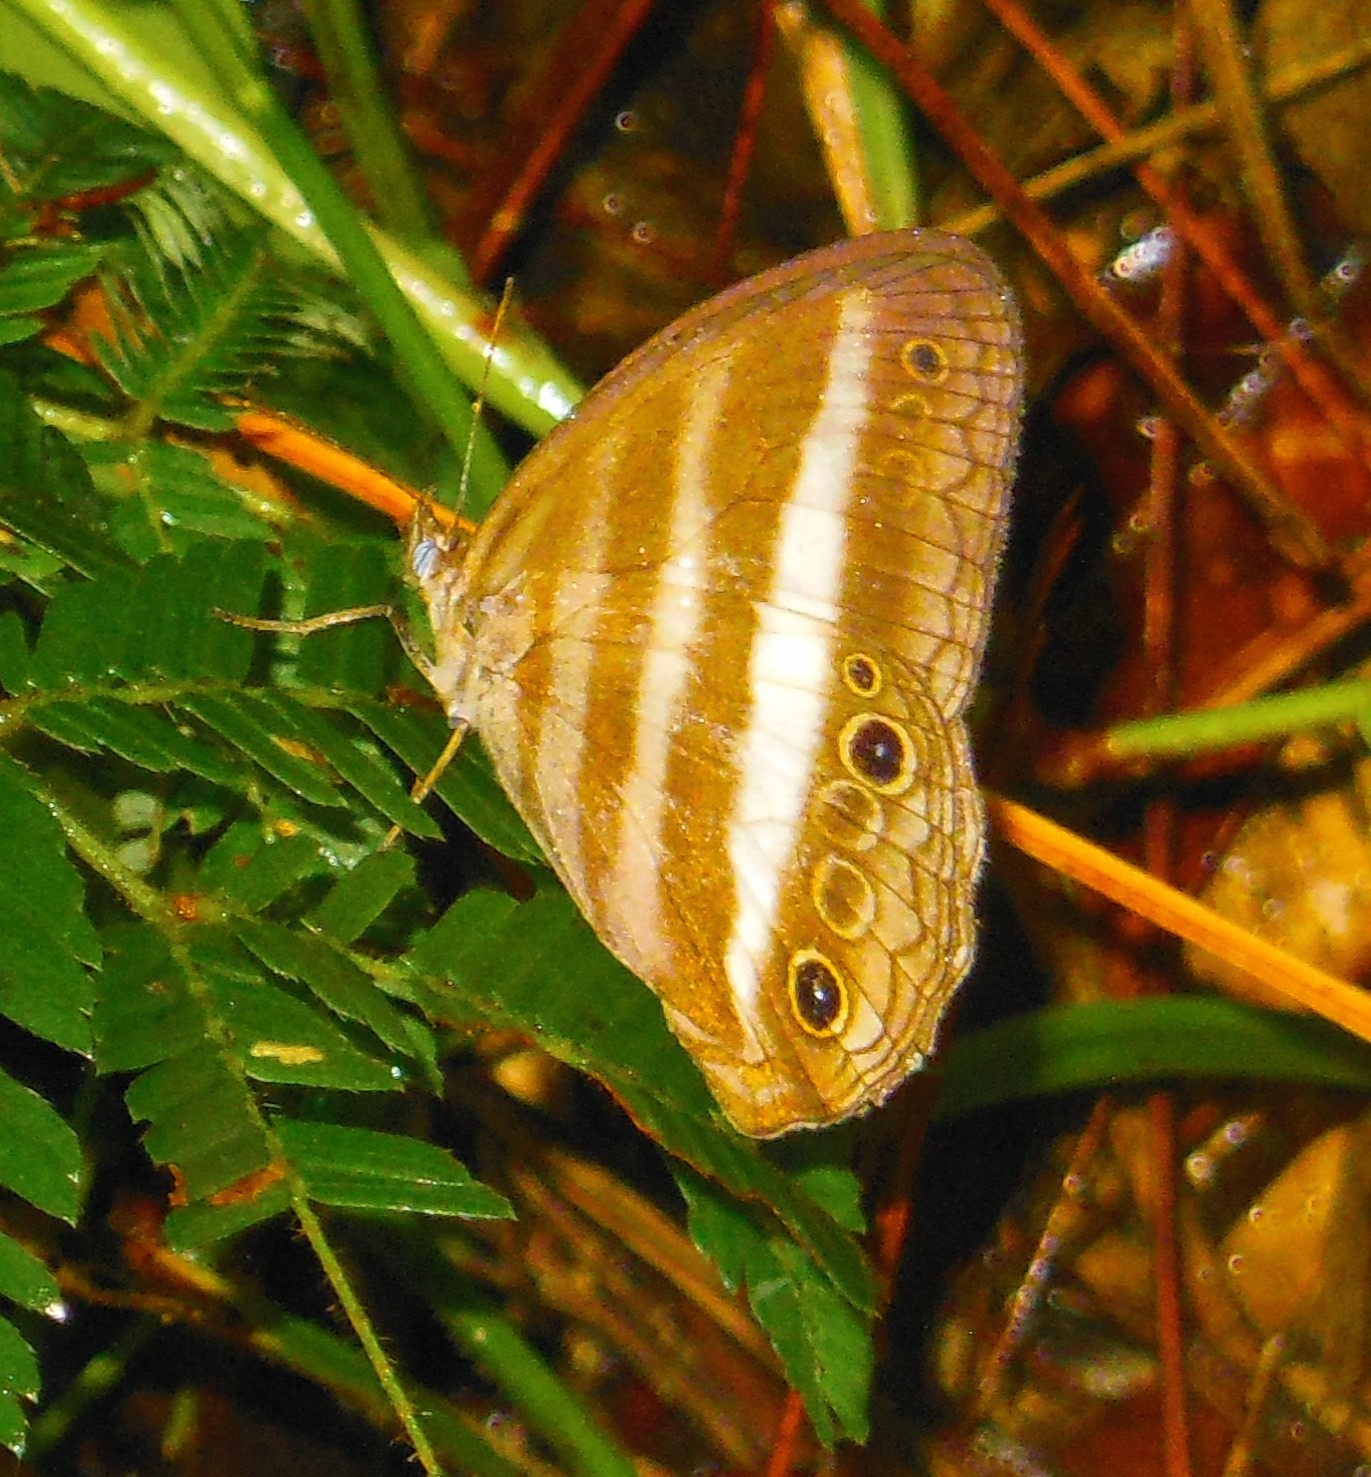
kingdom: Animalia
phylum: Arthropoda
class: Insecta
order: Lepidoptera
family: Nymphalidae
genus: Pareuptychia
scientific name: Pareuptychia hesione
